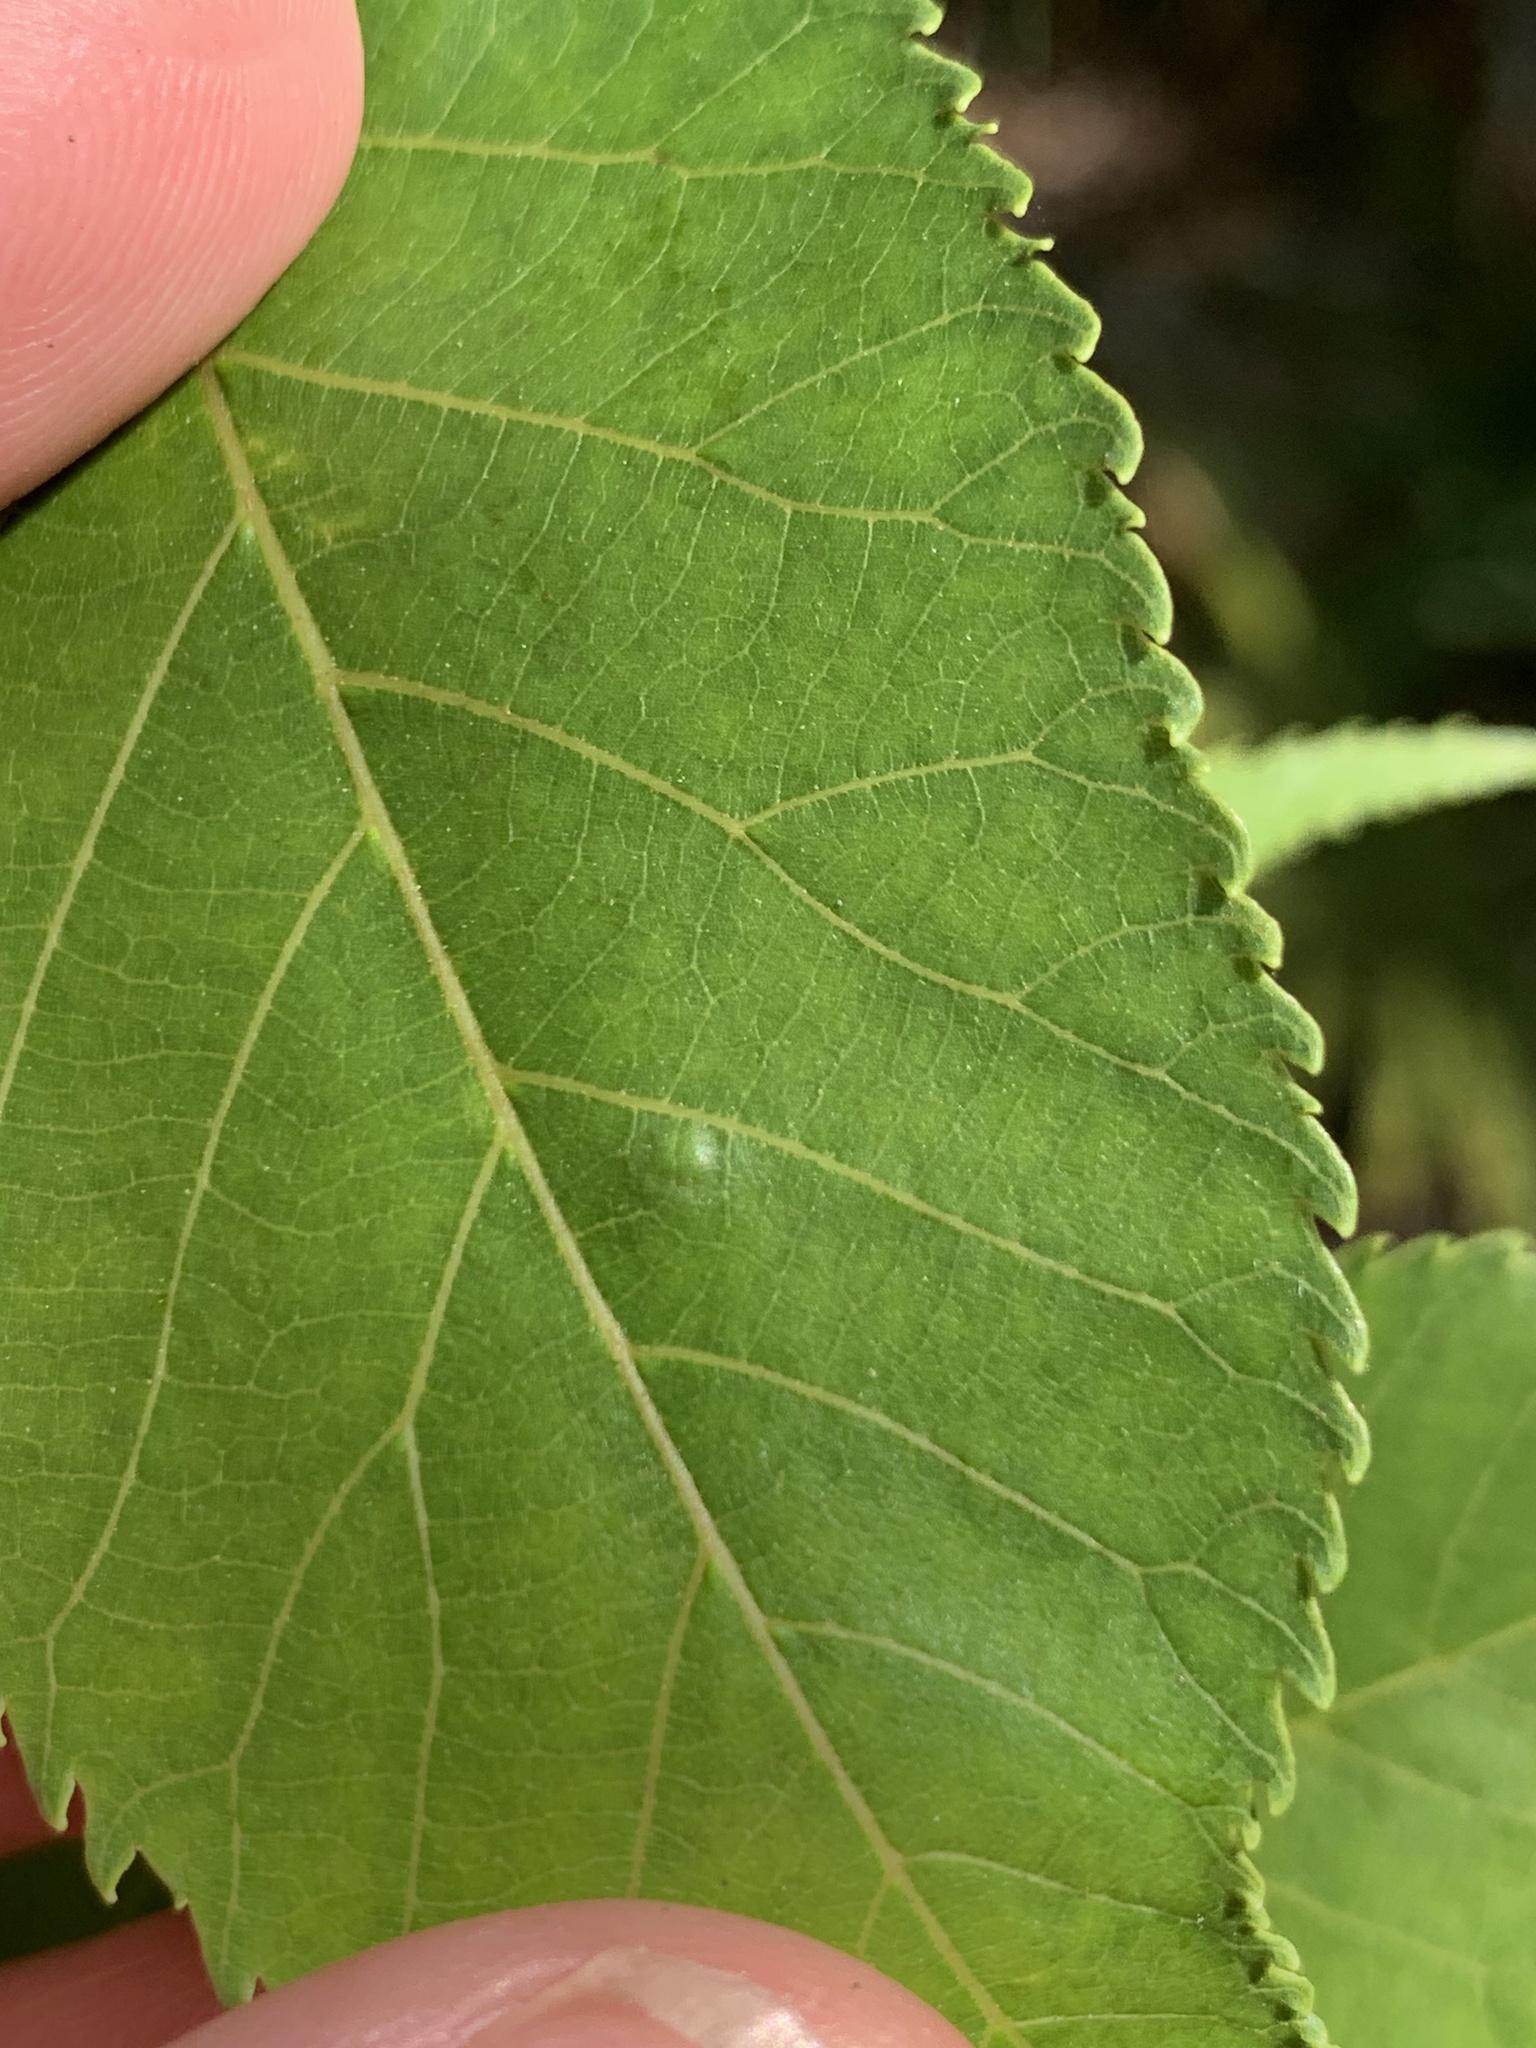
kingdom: Animalia
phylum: Arthropoda
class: Insecta
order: Diptera
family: Cecidomyiidae
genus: Gliaspilota
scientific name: Gliaspilota glutinosa
